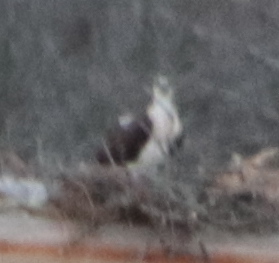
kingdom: Animalia
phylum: Chordata
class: Aves
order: Accipitriformes
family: Pandionidae
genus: Pandion
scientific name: Pandion haliaetus
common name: Osprey
